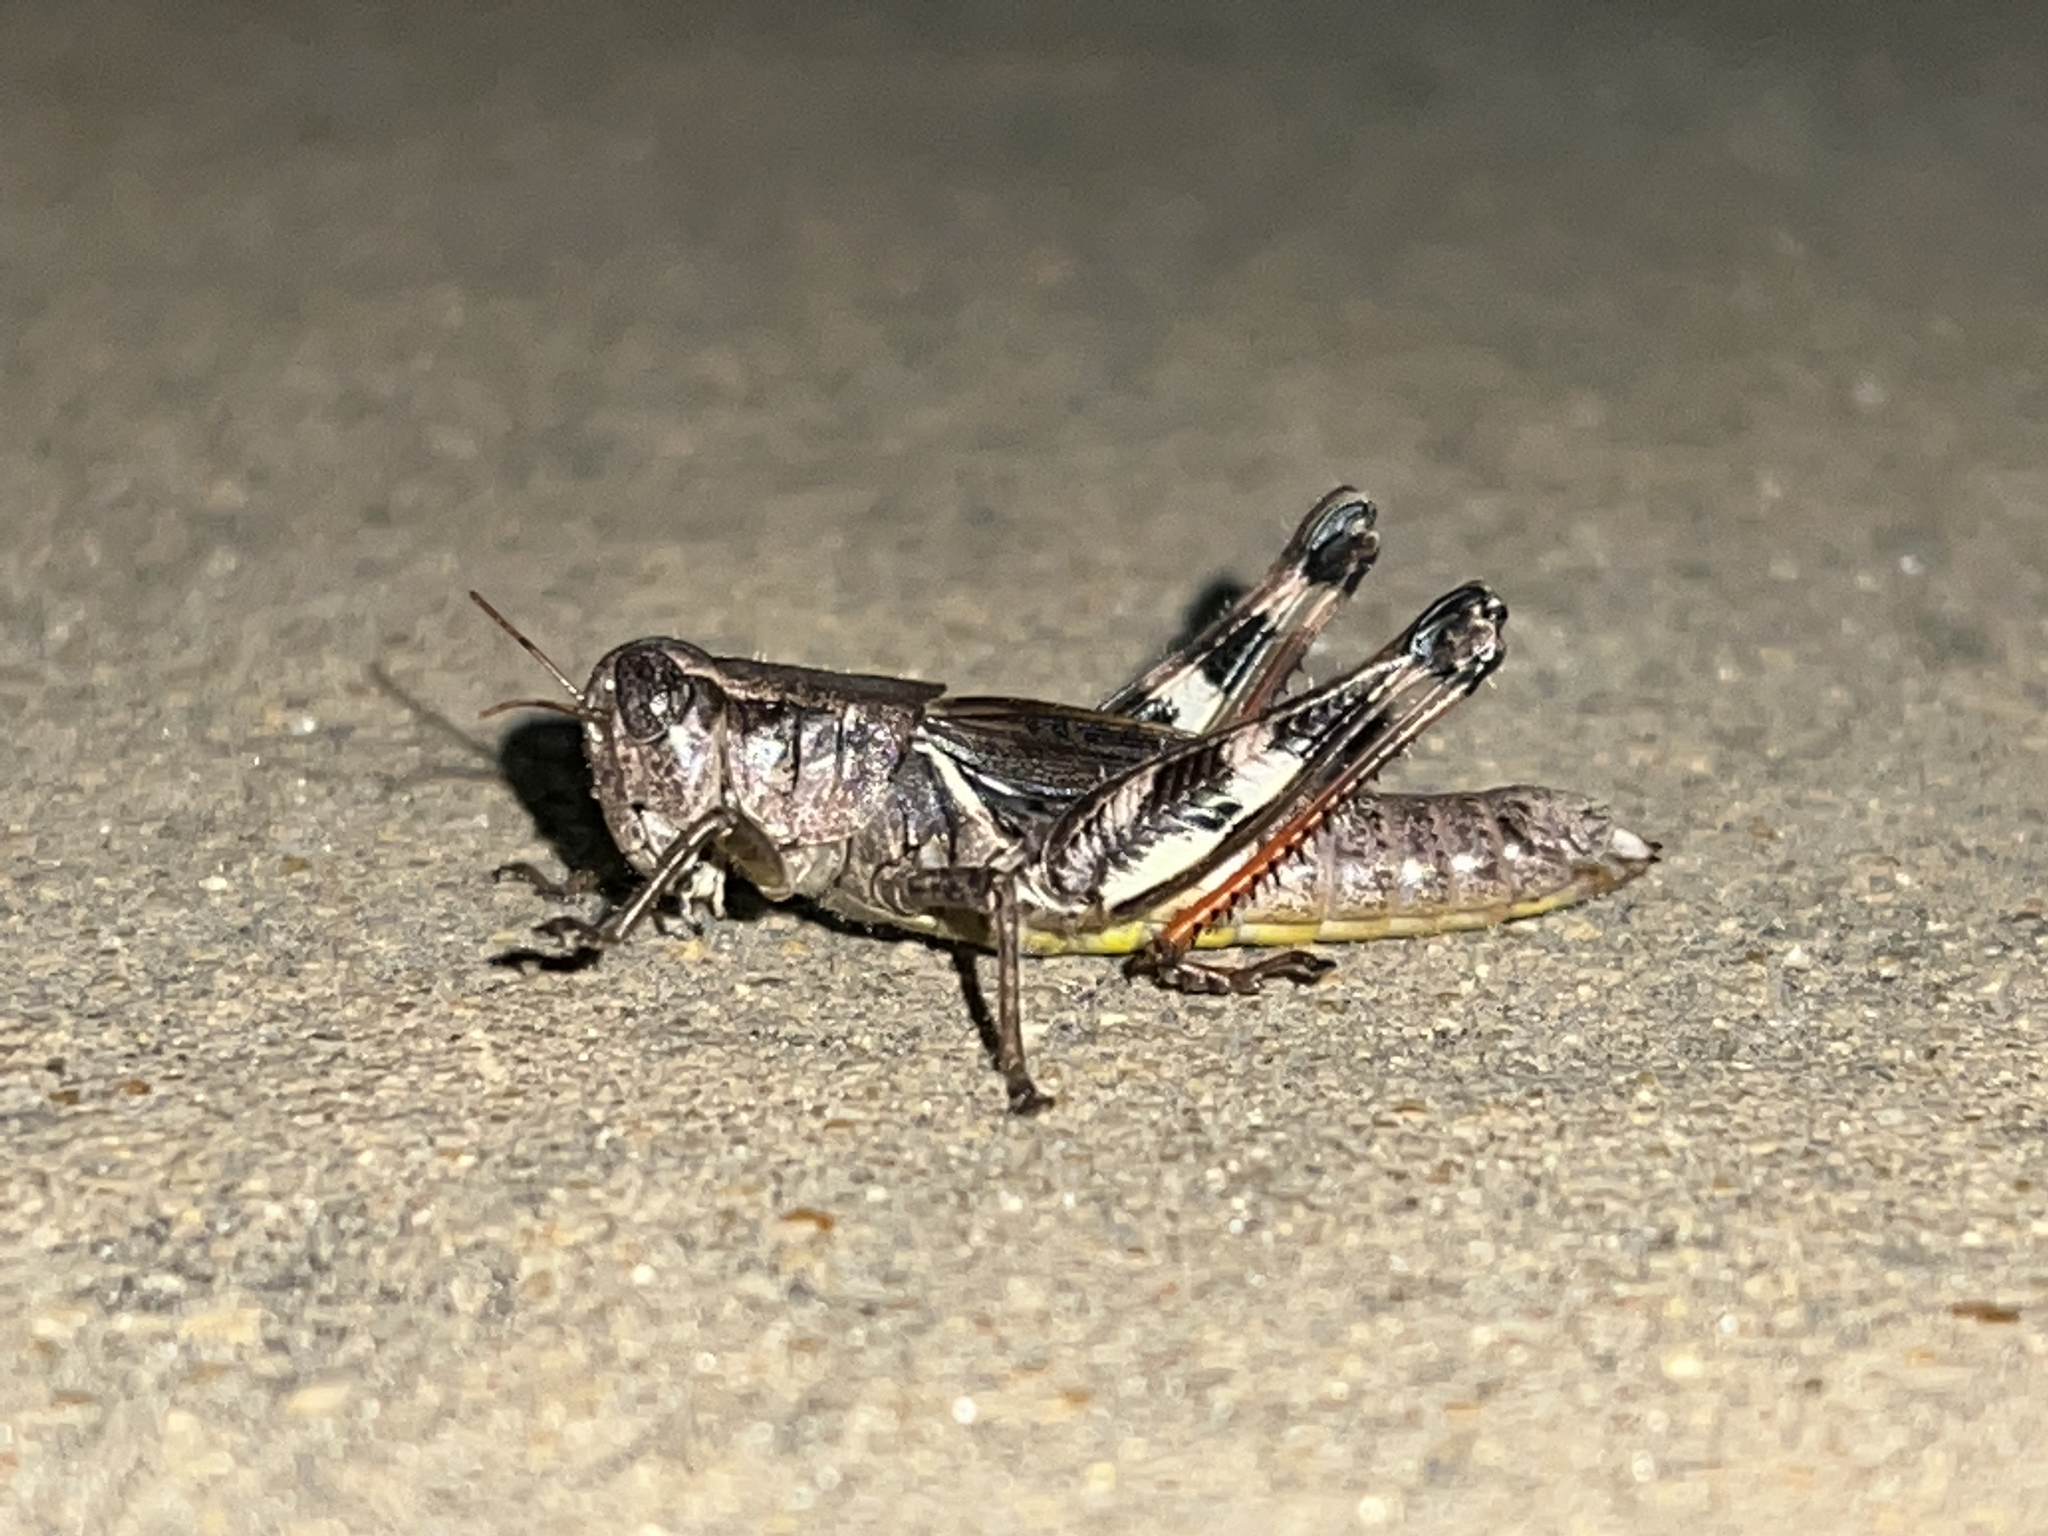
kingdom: Animalia
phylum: Arthropoda
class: Insecta
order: Orthoptera
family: Acrididae
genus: Melanoplus
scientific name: Melanoplus scudderi
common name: Scudder's short-winged locust
